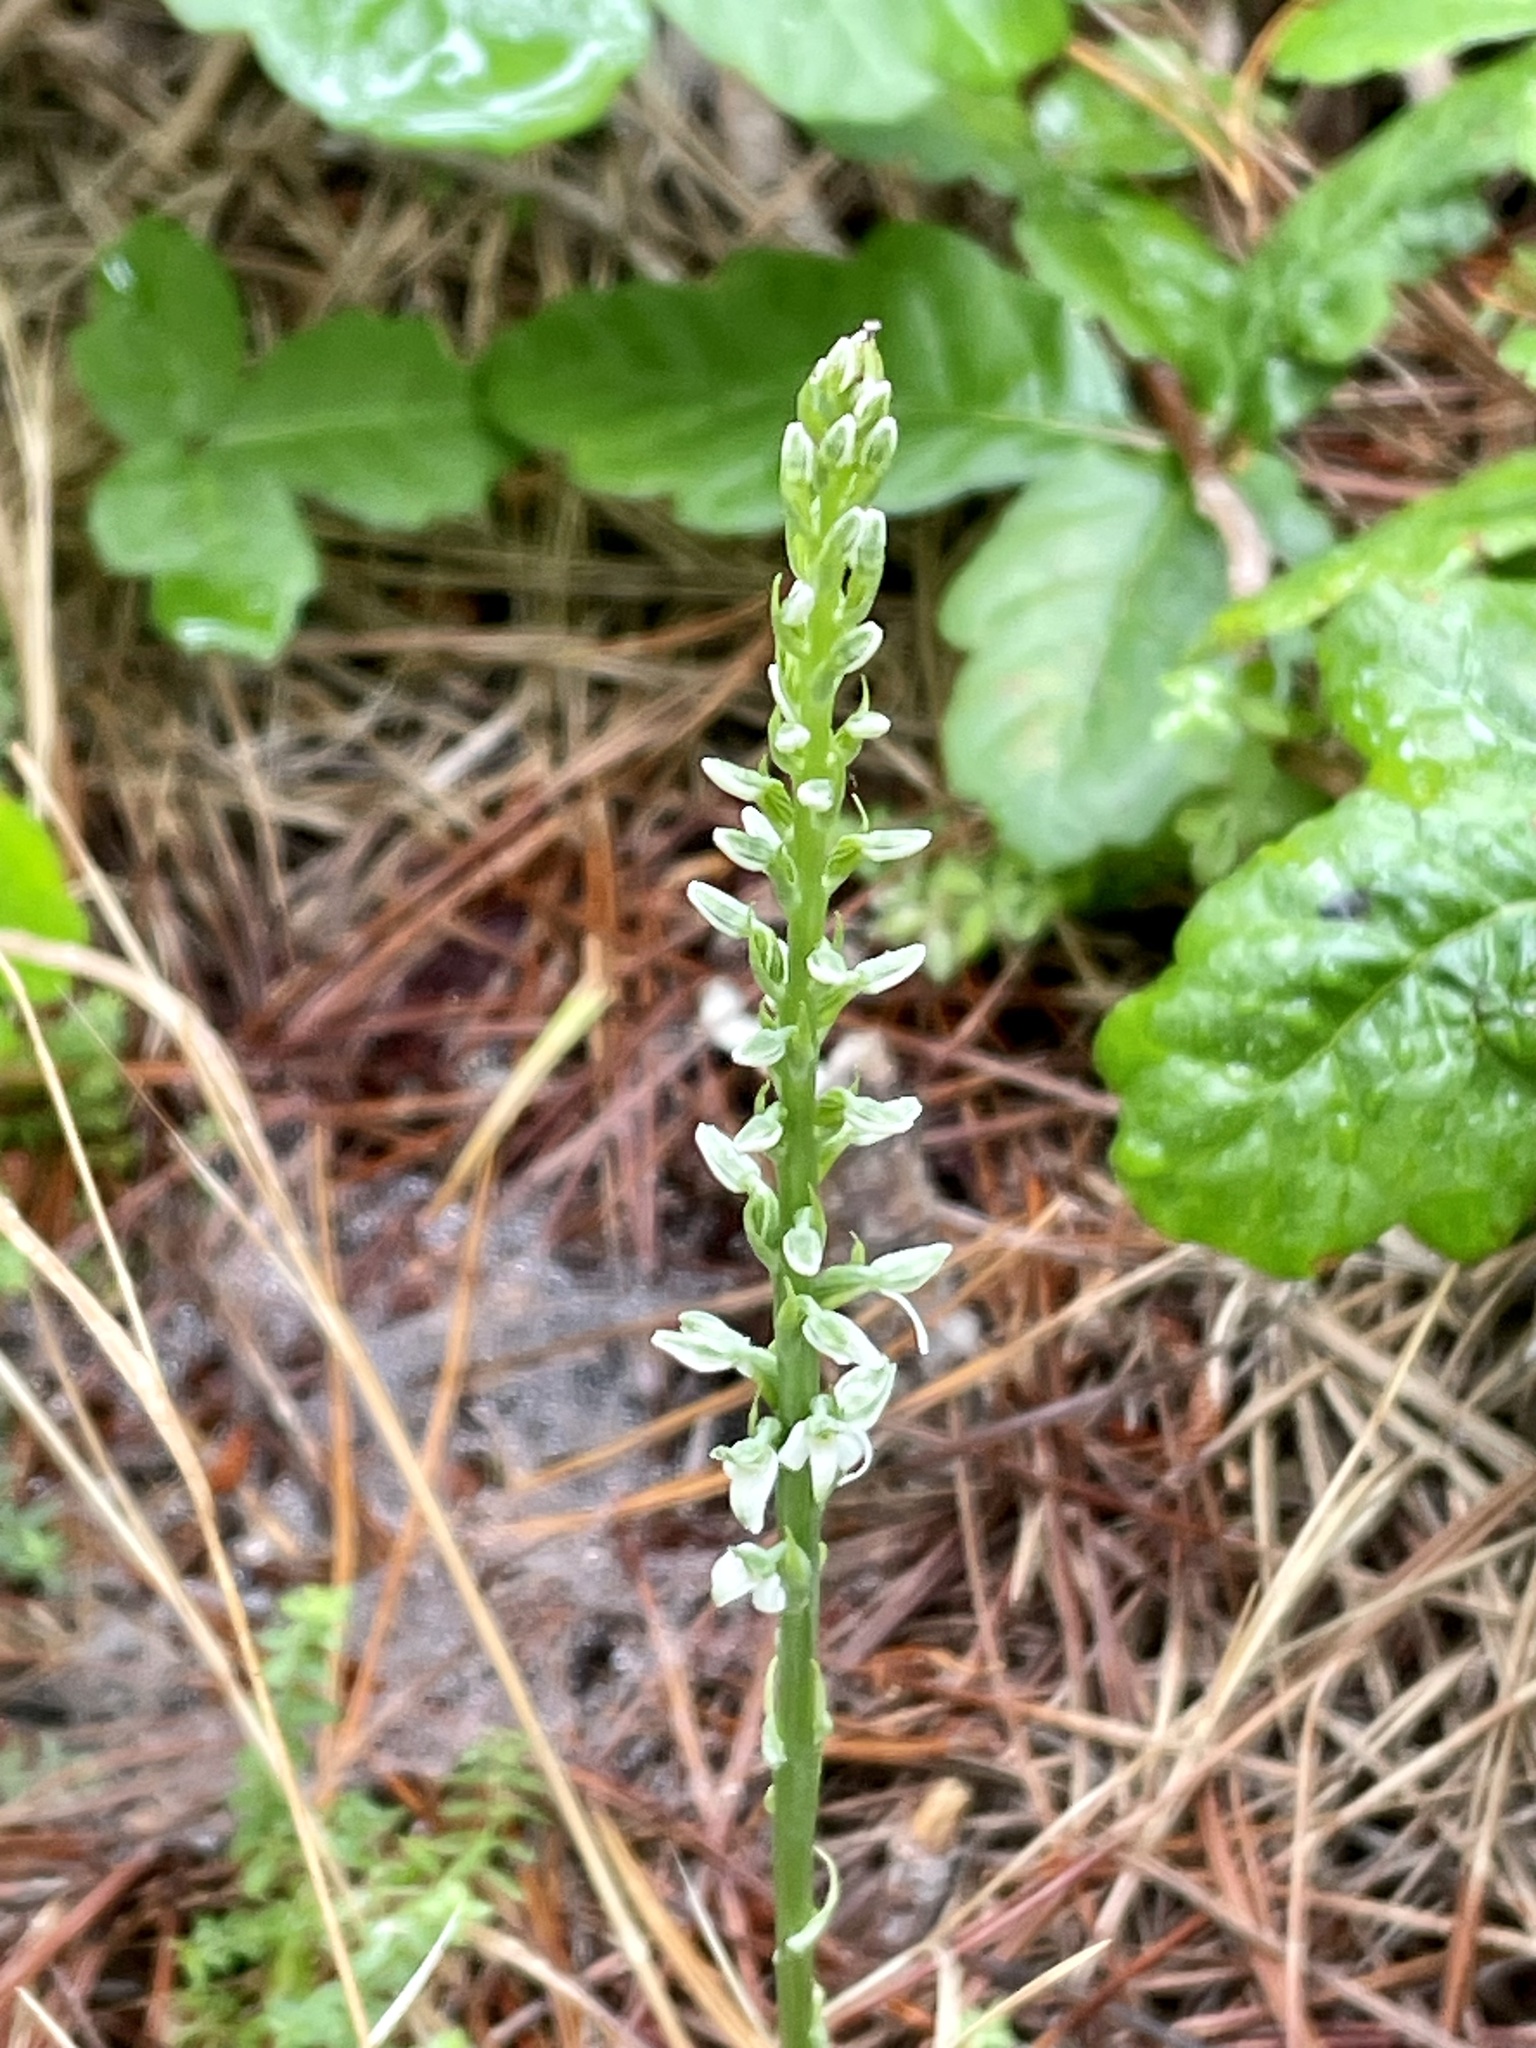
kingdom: Plantae
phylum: Tracheophyta
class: Liliopsida
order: Asparagales
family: Orchidaceae
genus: Platanthera
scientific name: Platanthera yadonii
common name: Yadon’s piperia
